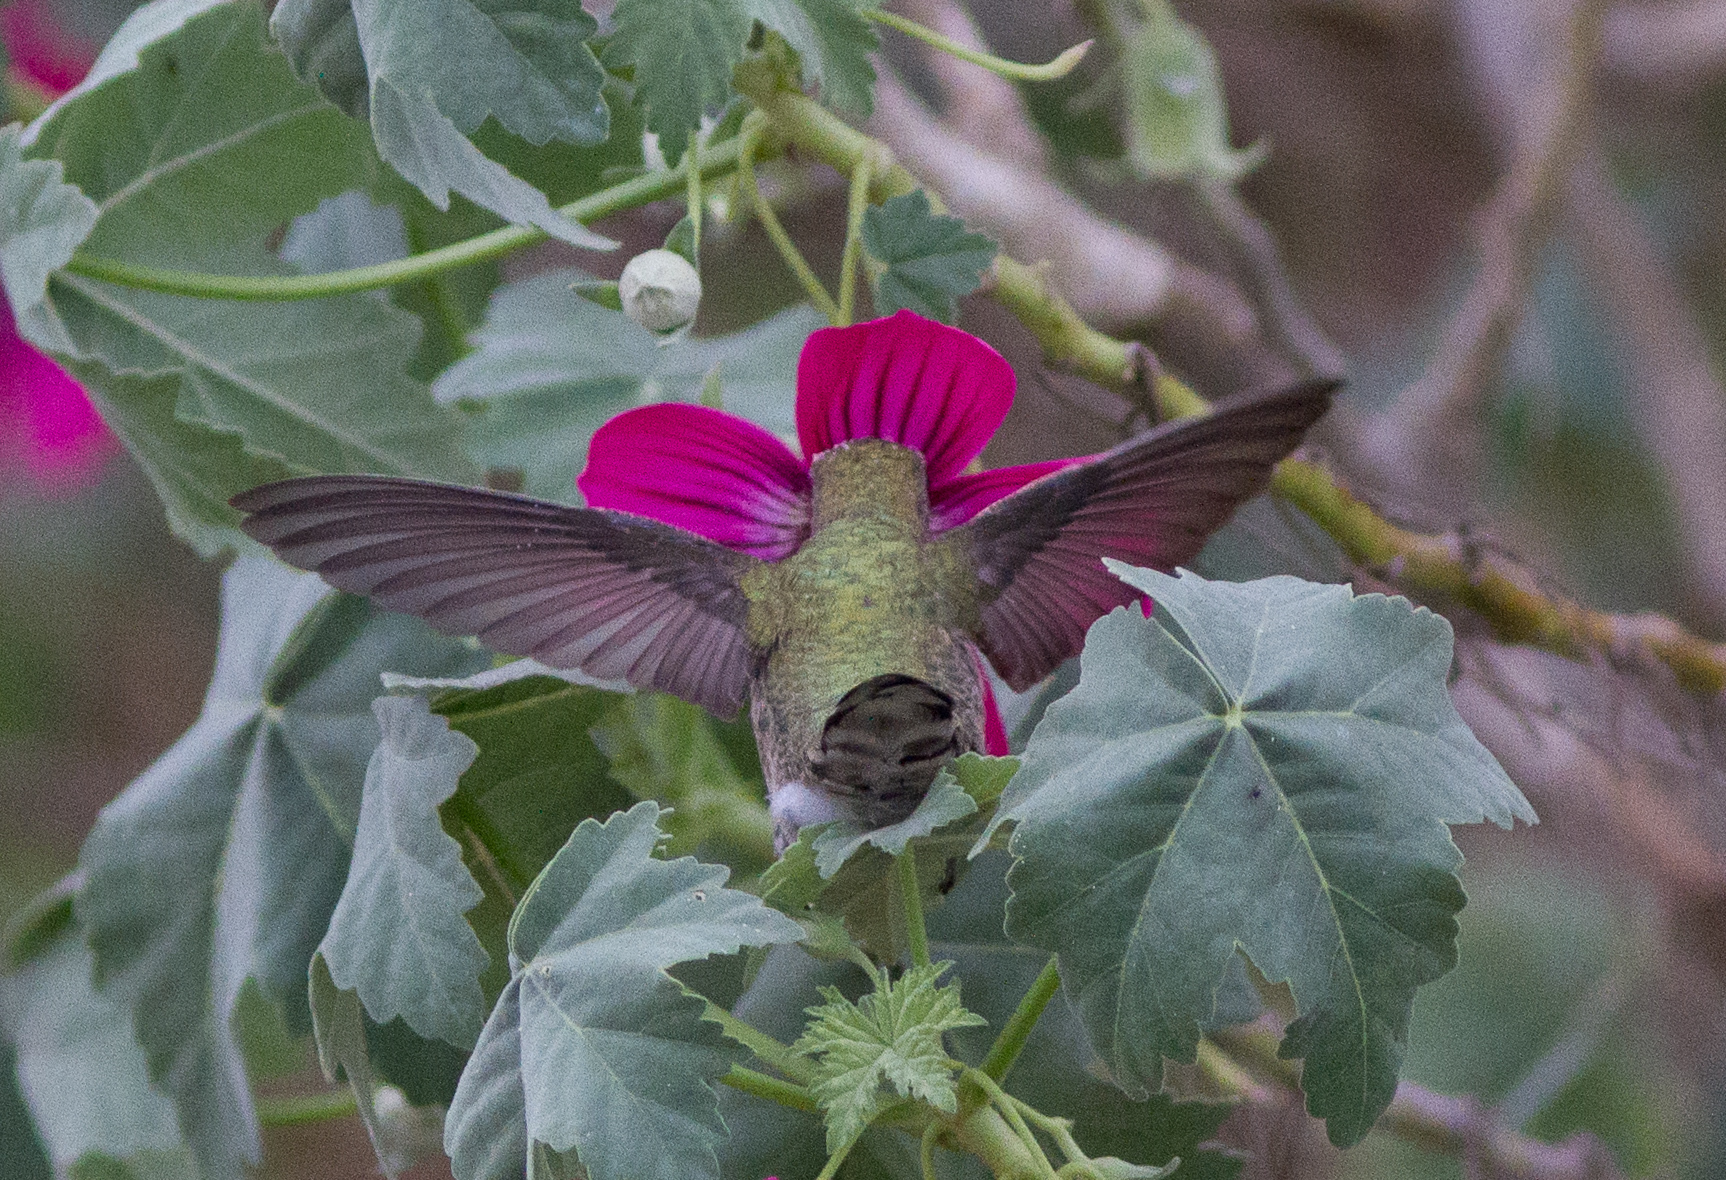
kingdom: Animalia
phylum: Chordata
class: Aves
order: Apodiformes
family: Trochilidae
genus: Calypte
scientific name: Calypte anna
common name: Anna's hummingbird
